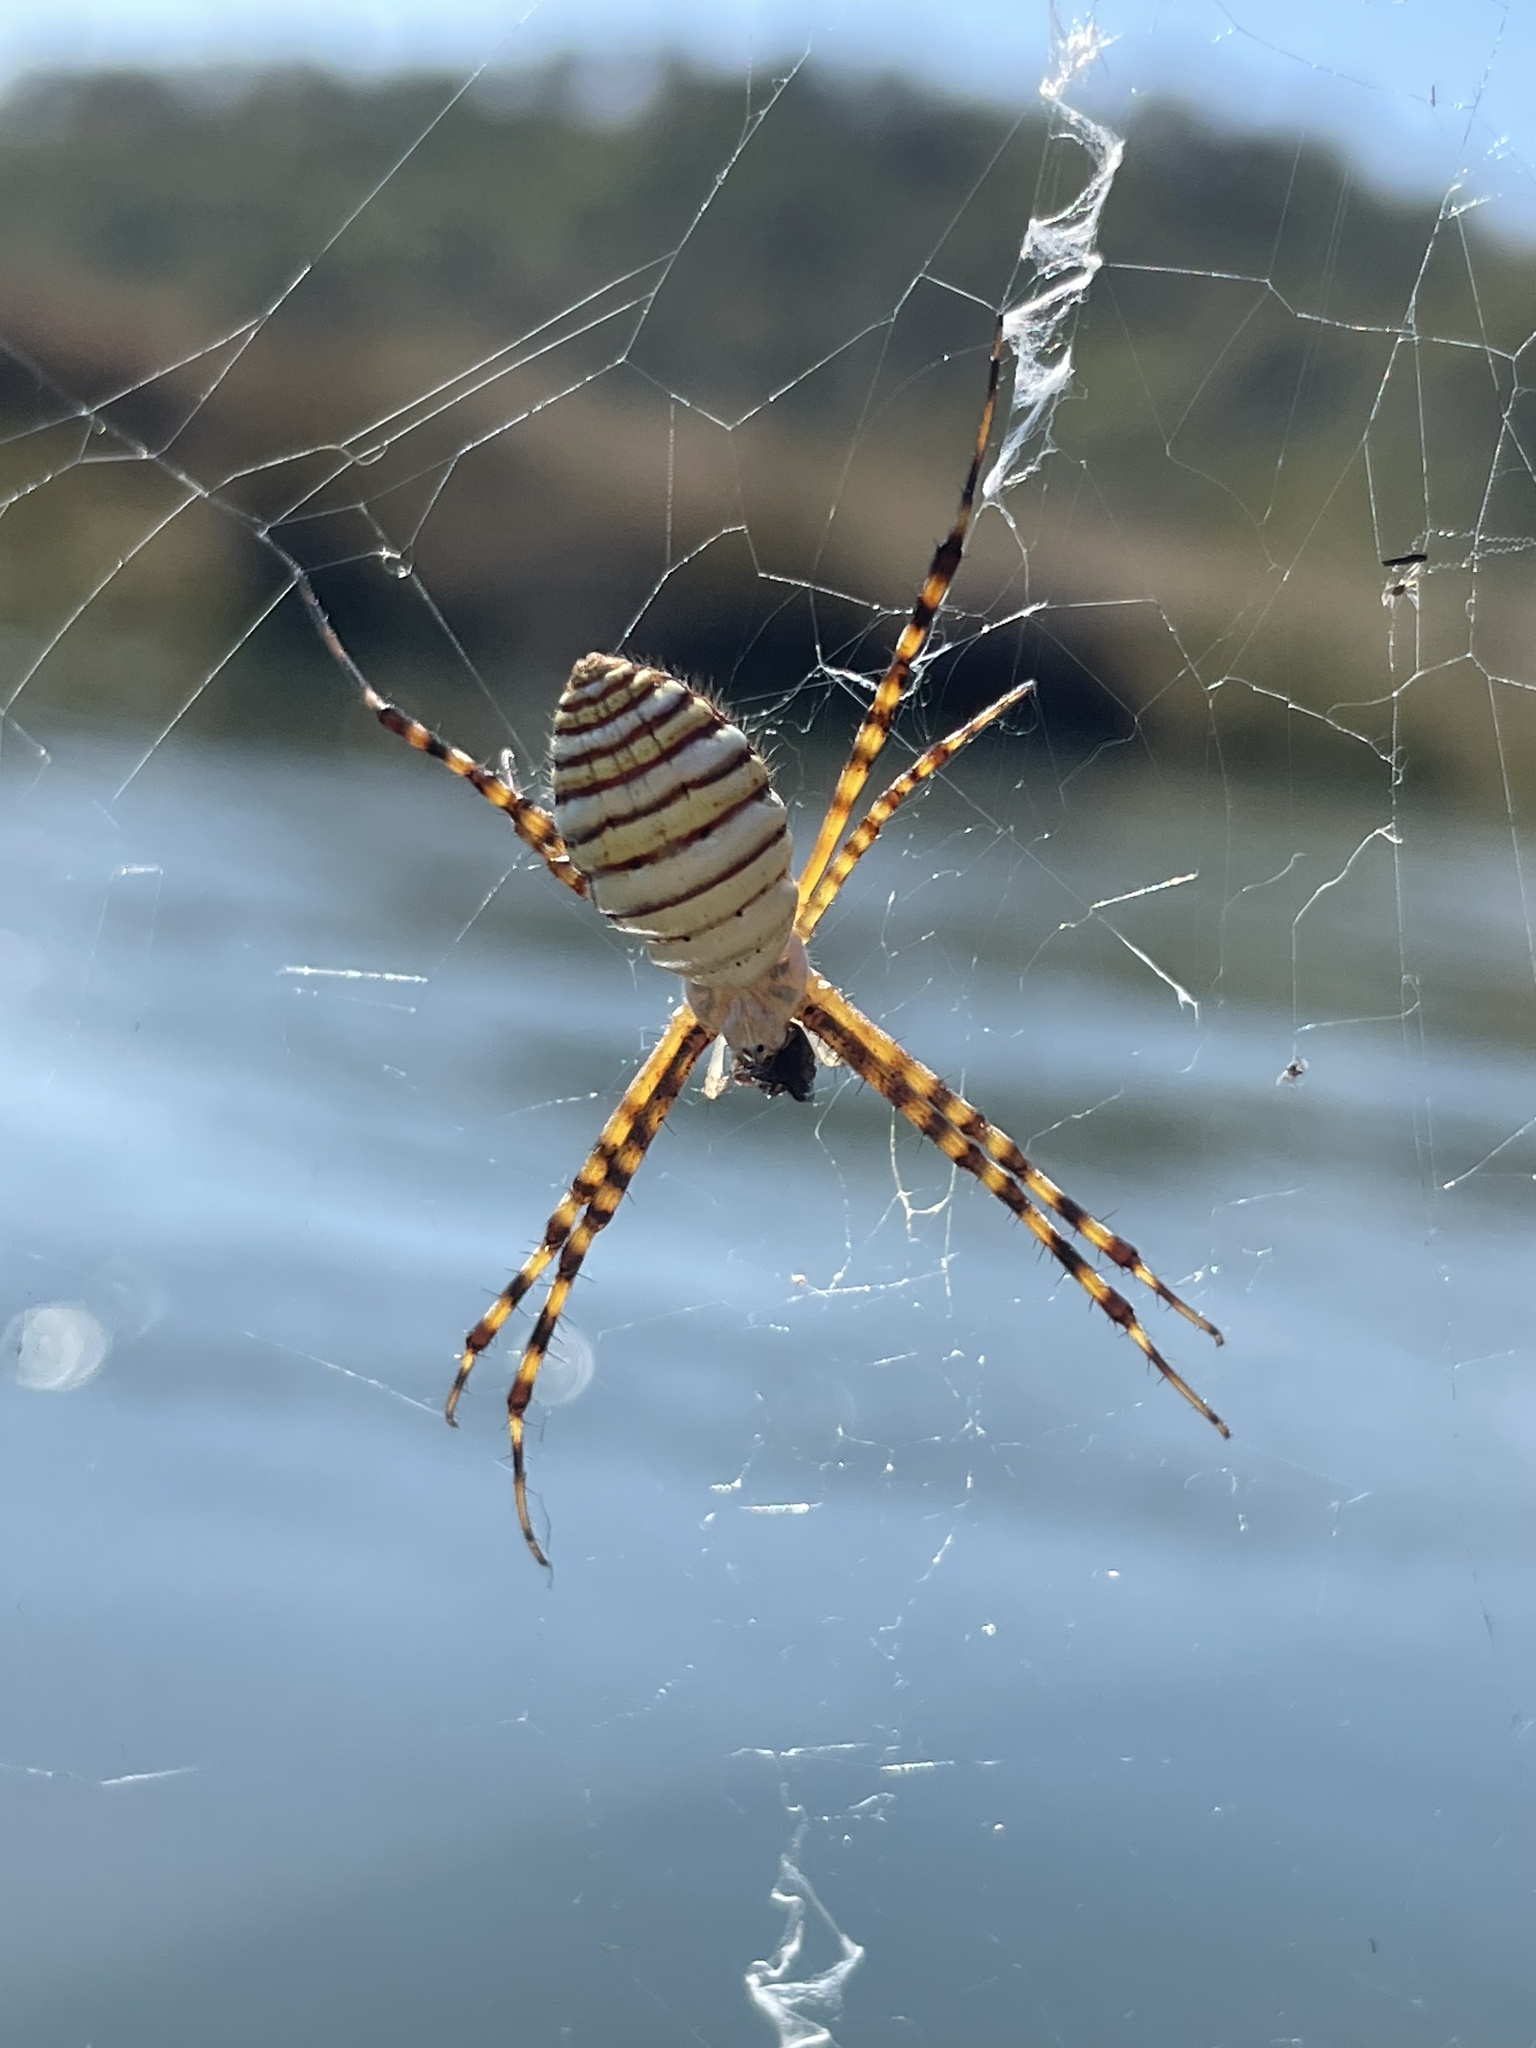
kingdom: Animalia
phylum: Arthropoda
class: Arachnida
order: Araneae
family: Araneidae
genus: Argiope
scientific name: Argiope trifasciata
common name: Banded garden spider
